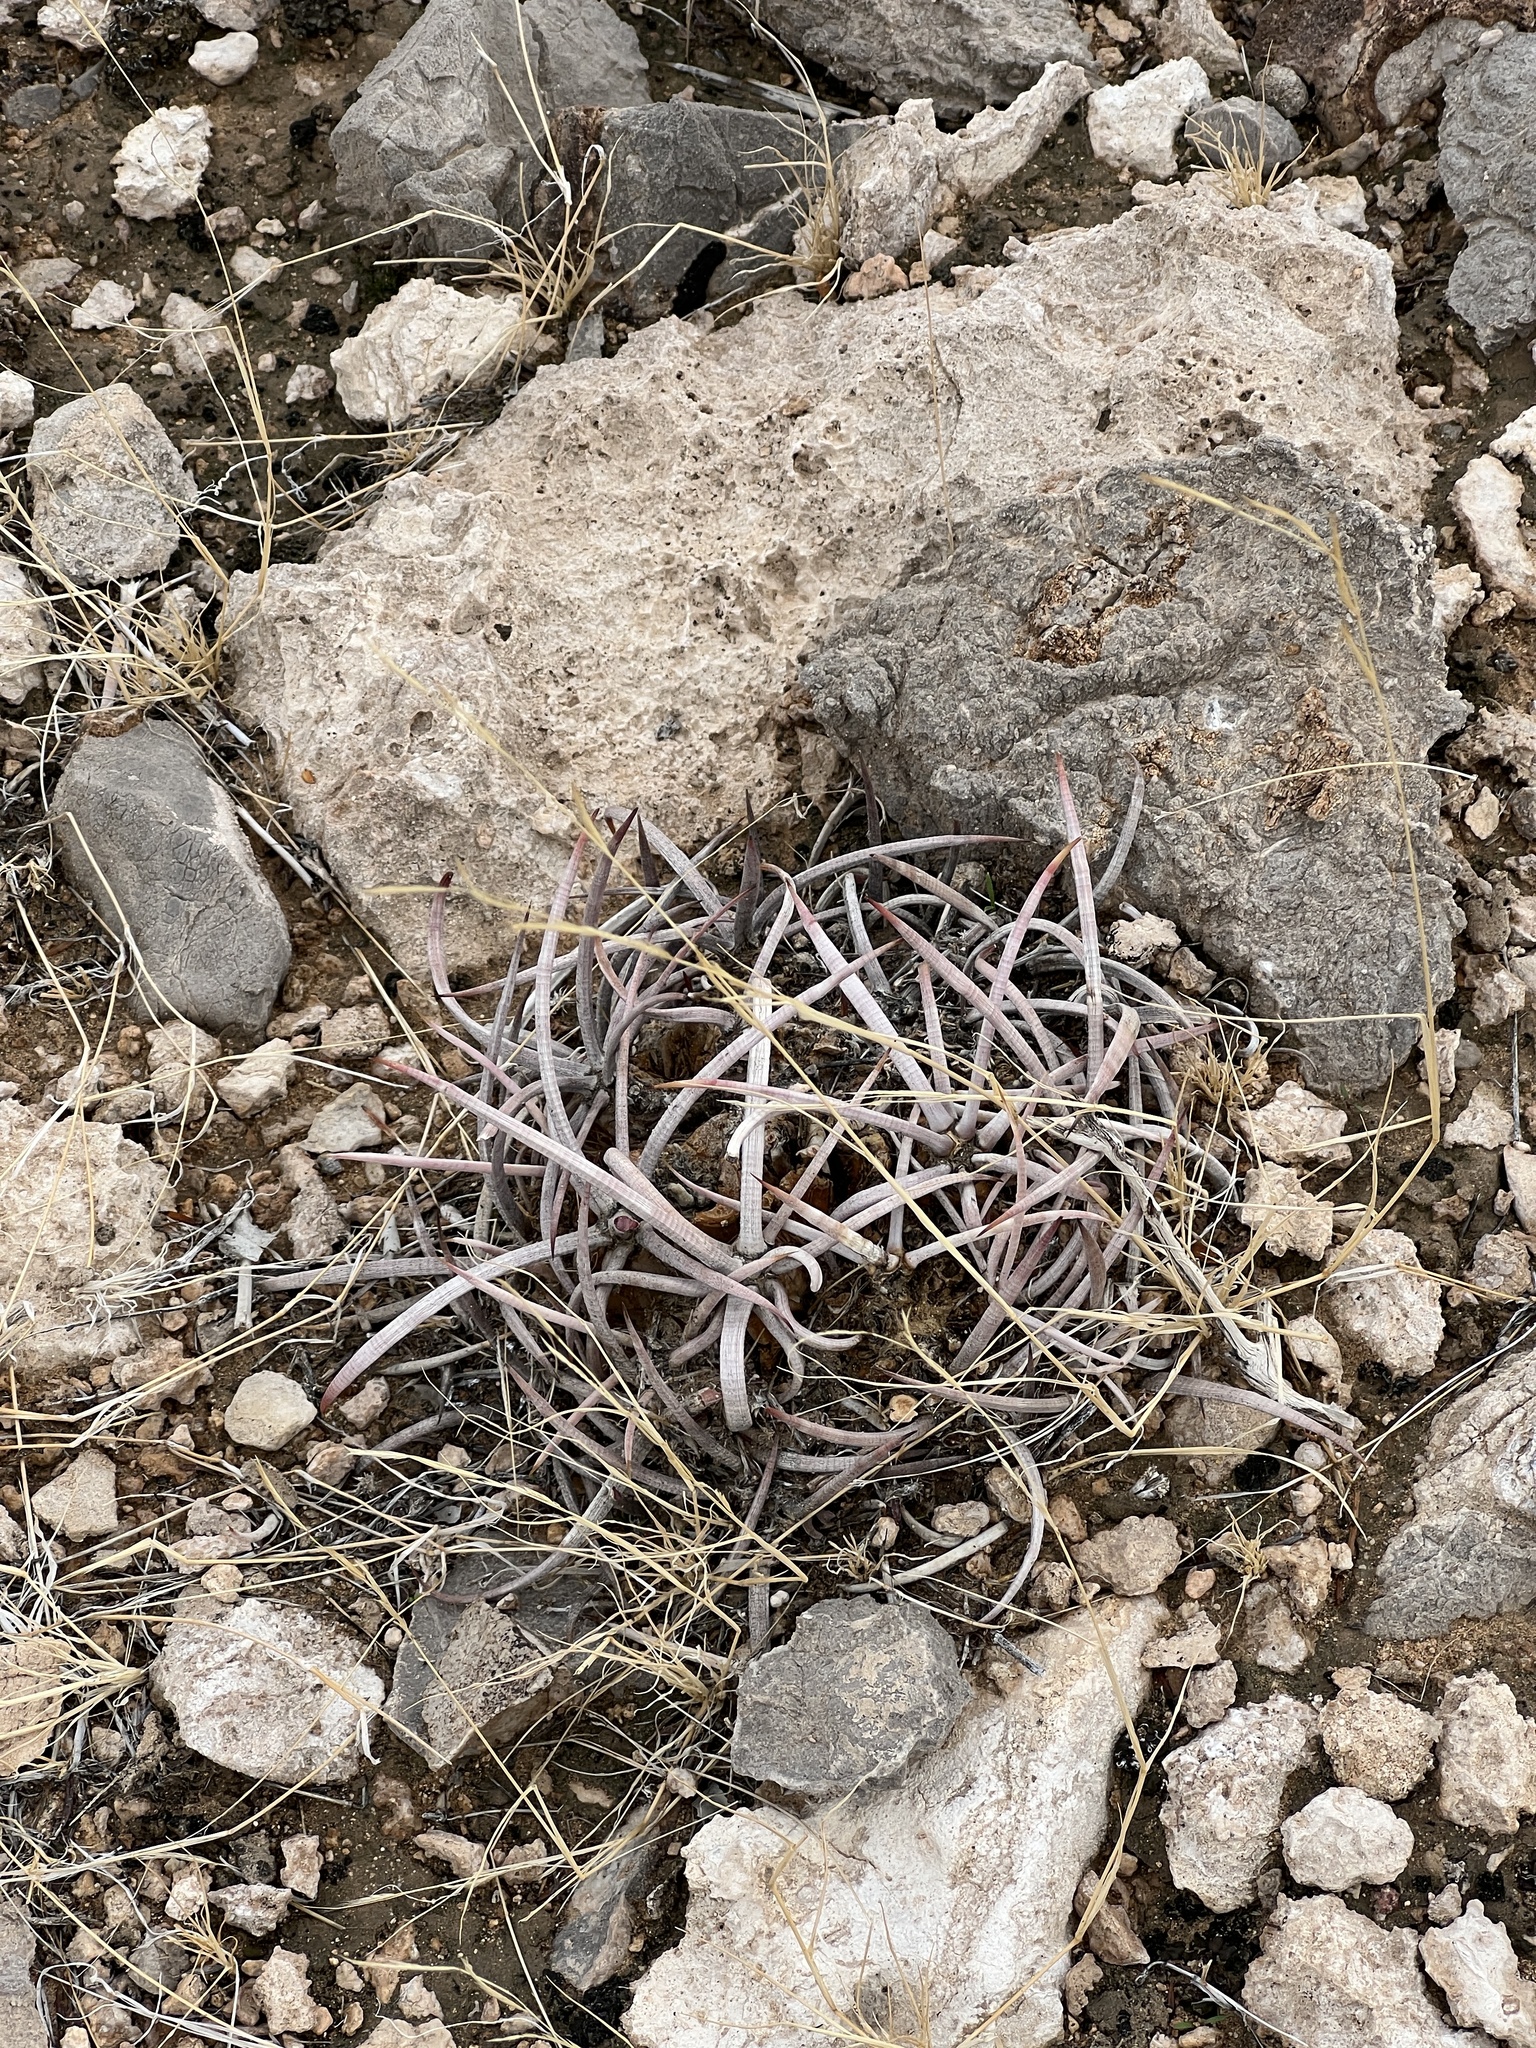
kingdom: Plantae
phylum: Tracheophyta
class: Magnoliopsida
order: Caryophyllales
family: Cactaceae
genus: Echinocactus
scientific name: Echinocactus polycephalus
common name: Cottontop cactus
